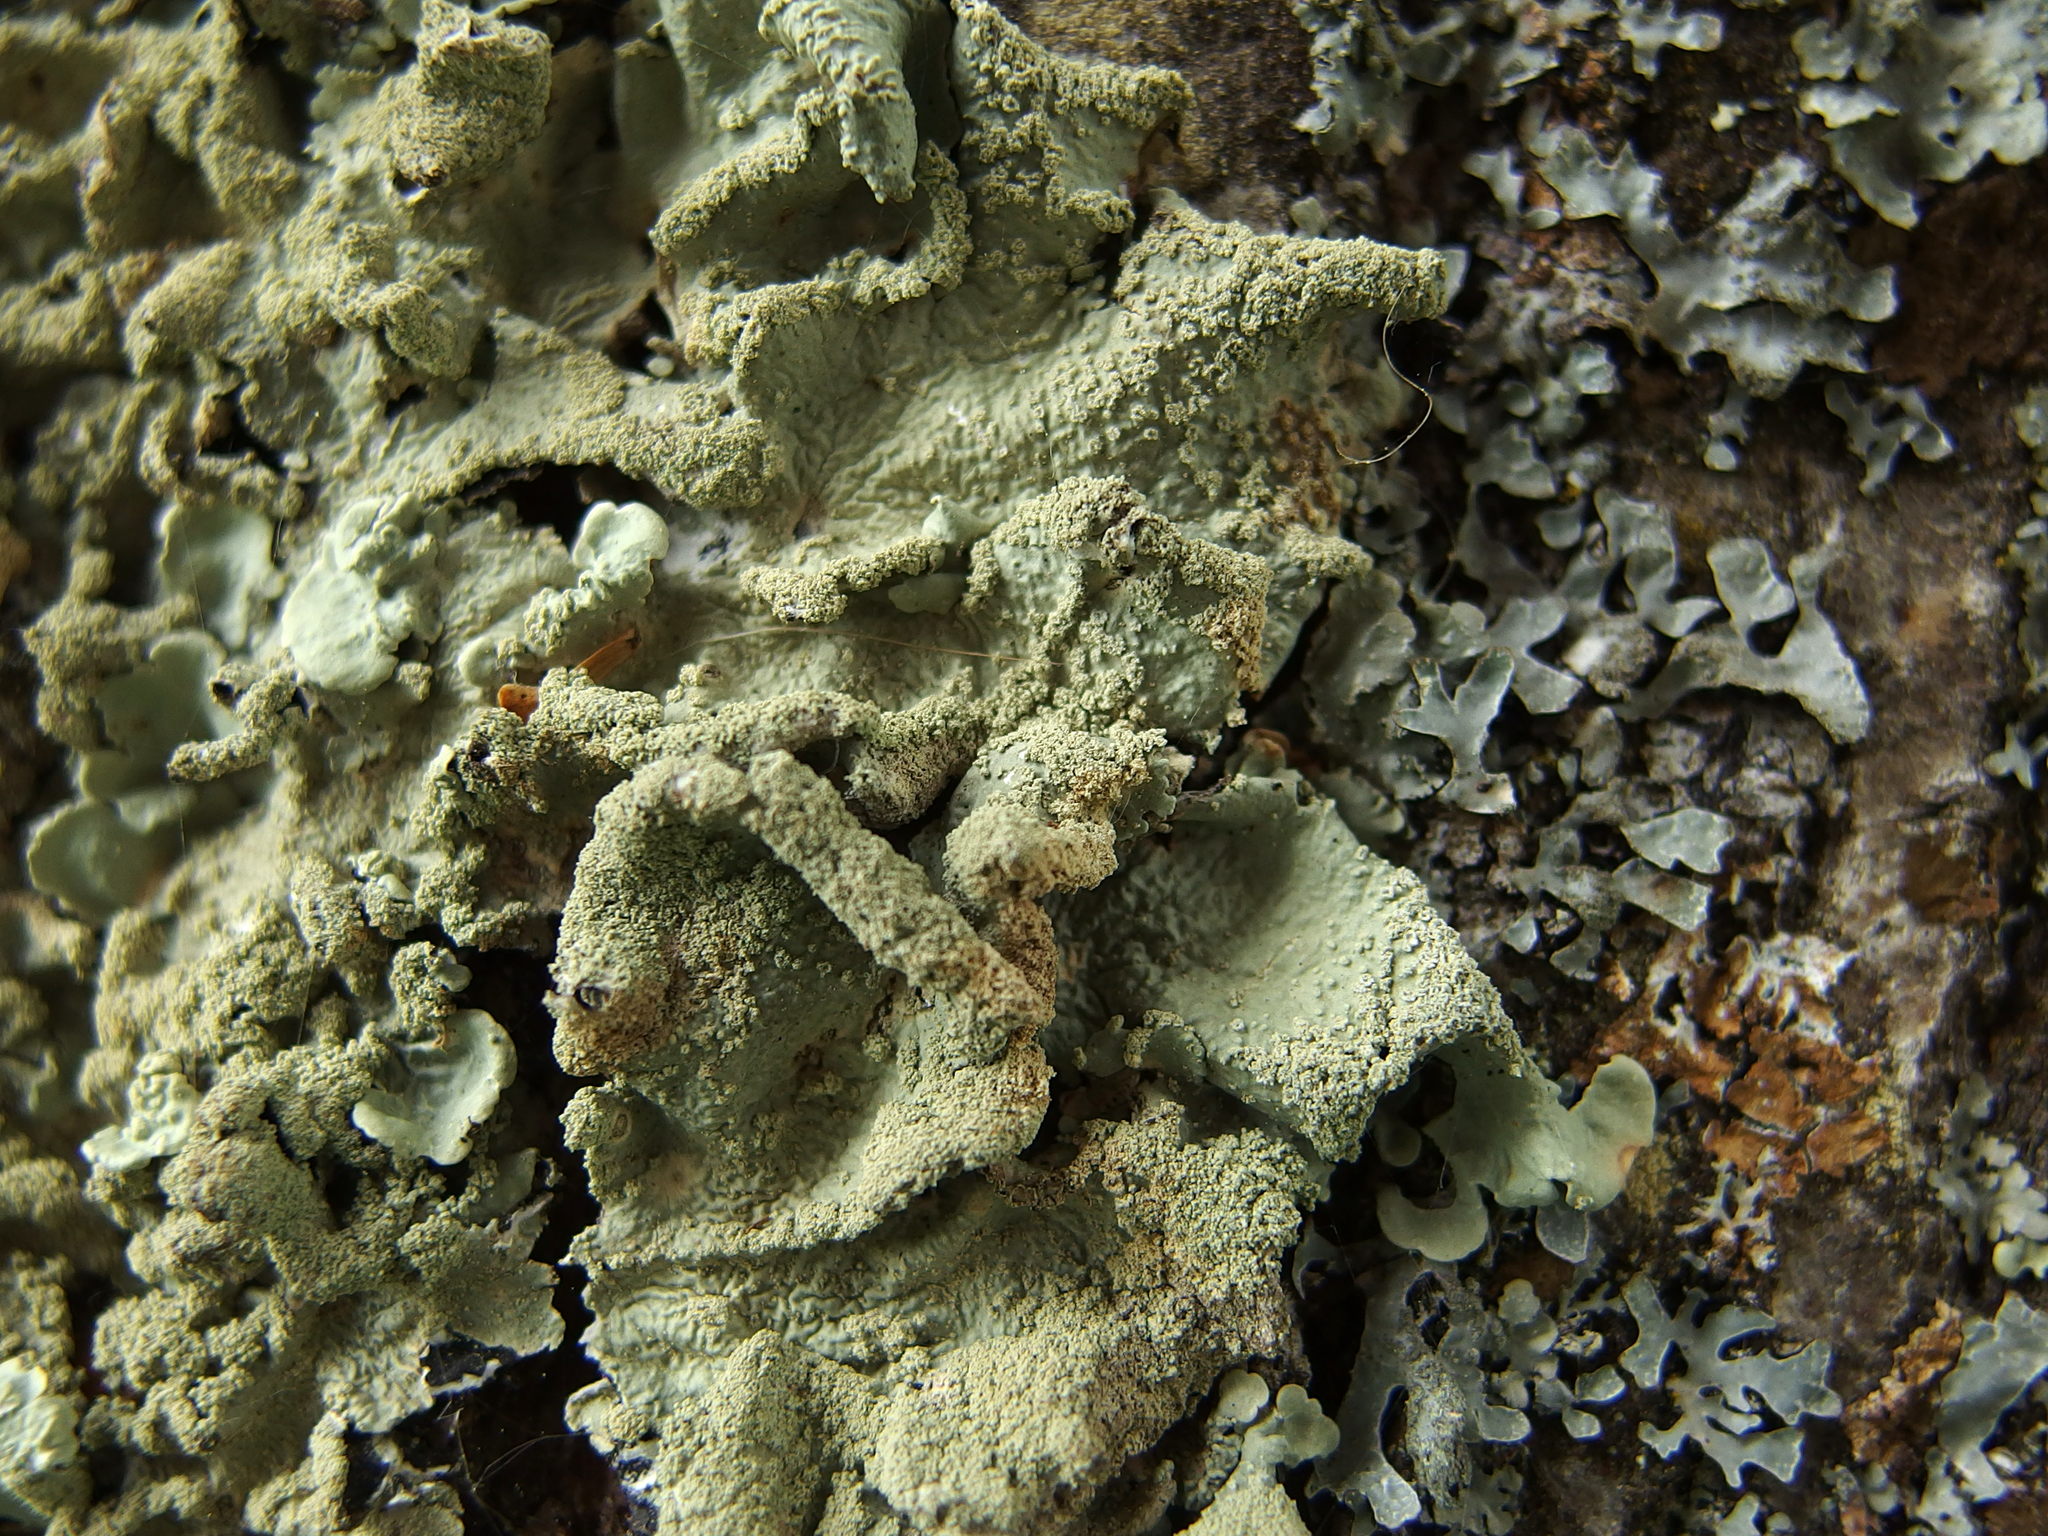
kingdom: Fungi
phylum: Ascomycota
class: Lecanoromycetes
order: Lecanorales
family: Parmeliaceae
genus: Flavoparmelia
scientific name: Flavoparmelia caperata
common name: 40-mile per hour lichen
